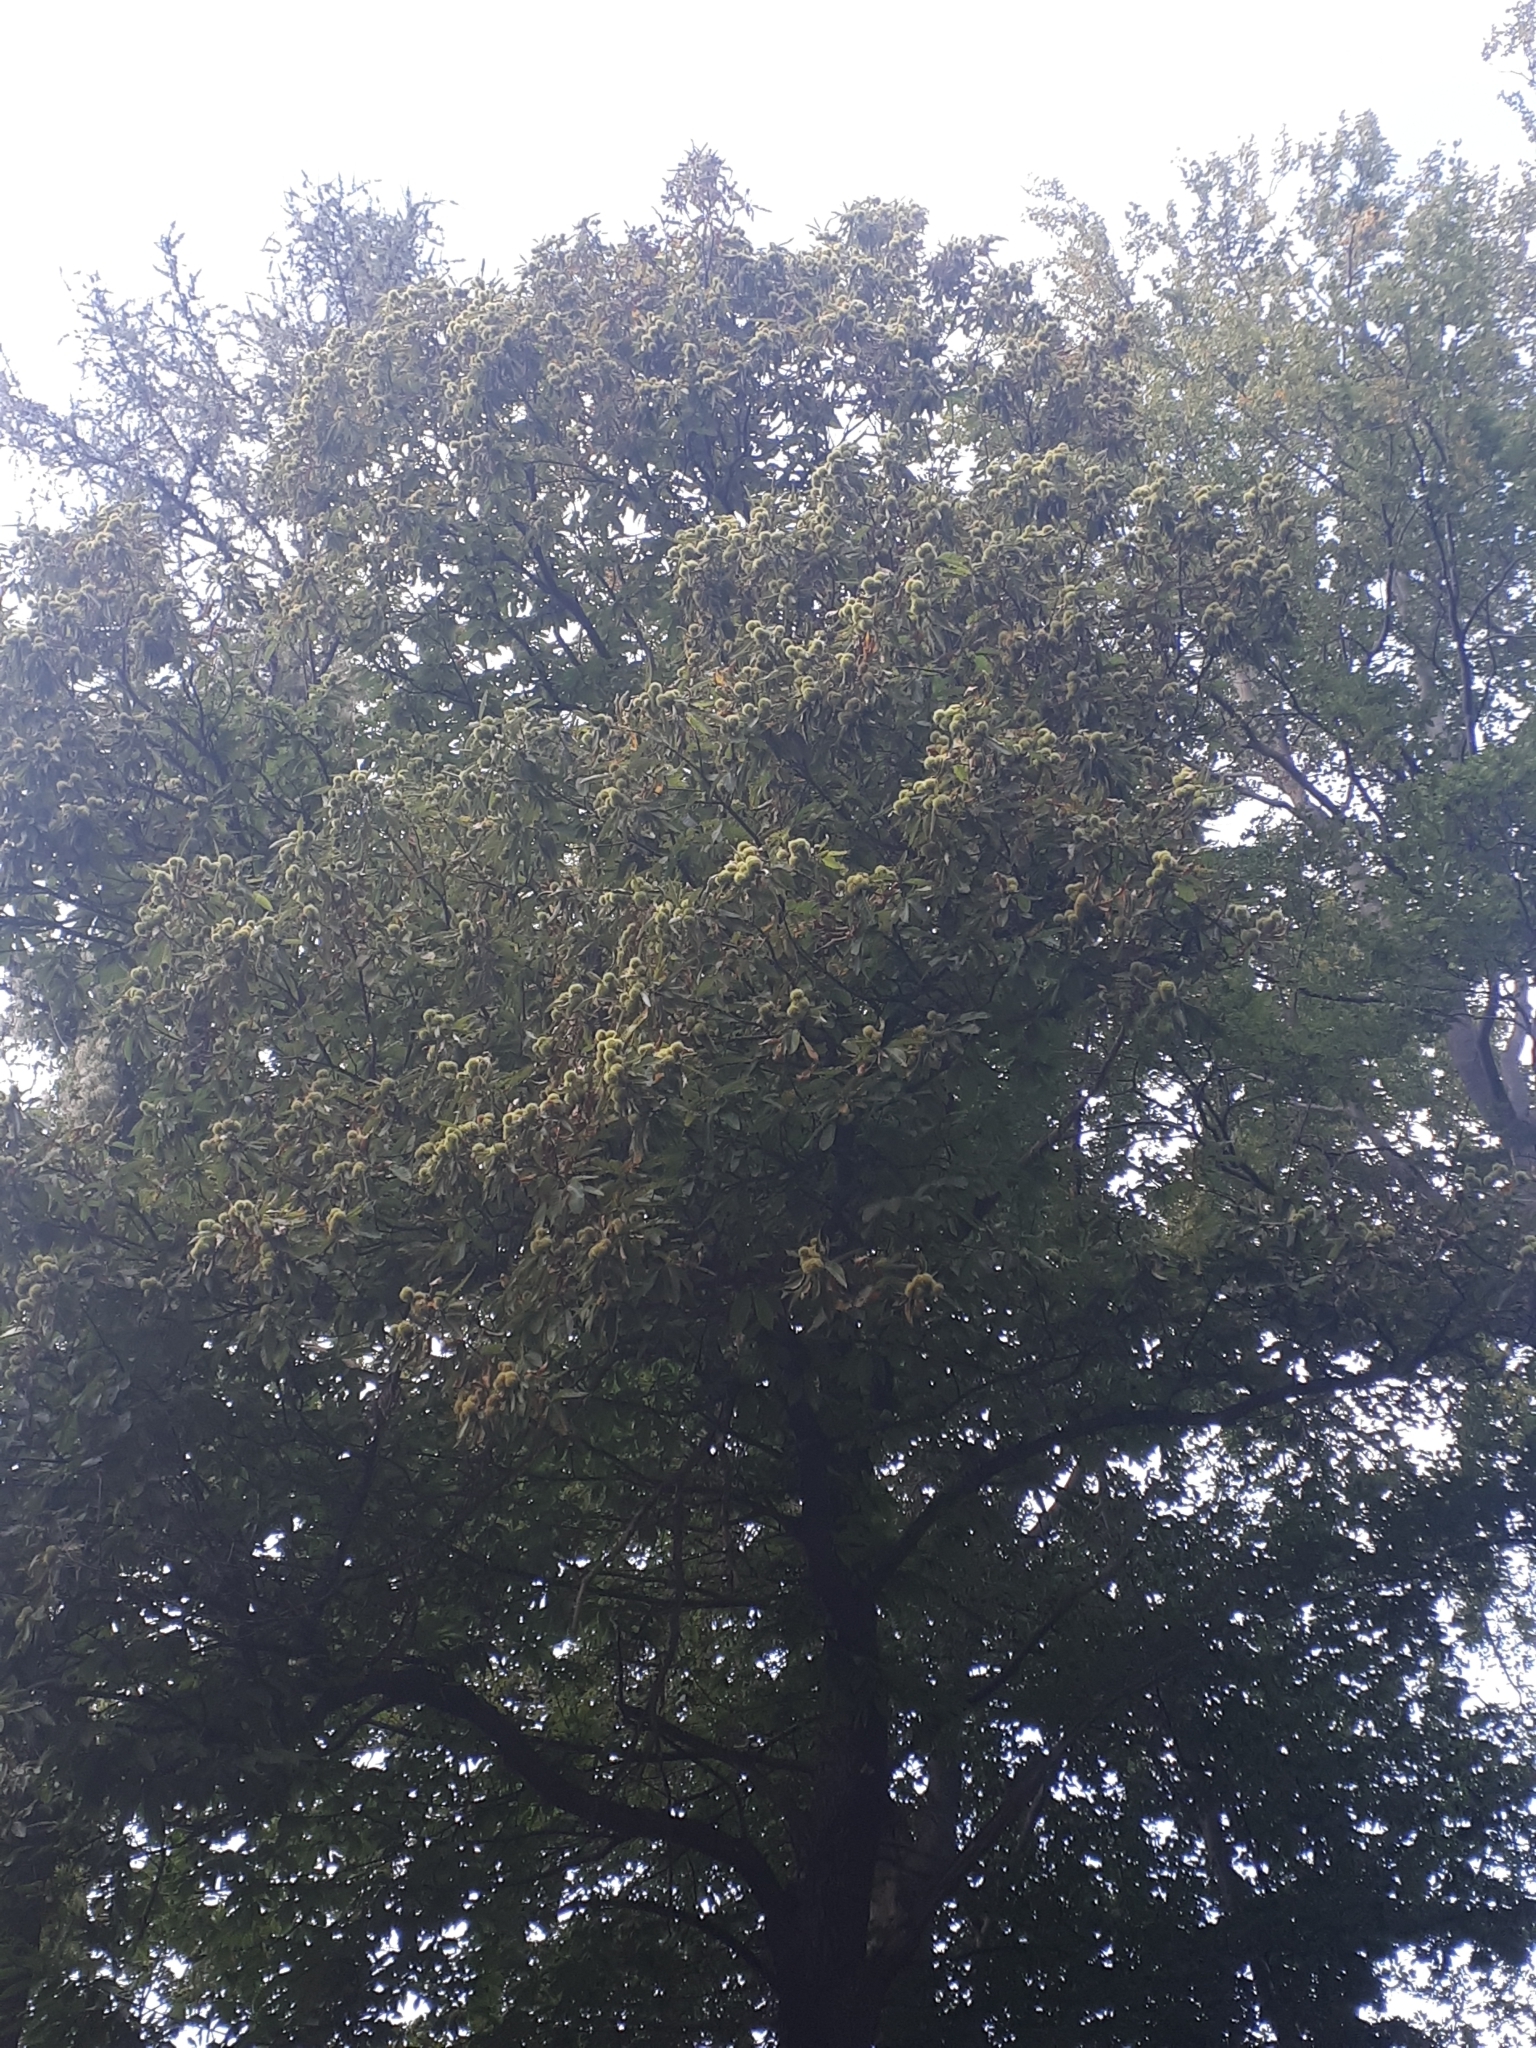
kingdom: Plantae
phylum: Tracheophyta
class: Magnoliopsida
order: Fagales
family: Fagaceae
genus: Castanea
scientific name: Castanea sativa
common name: Sweet chestnut
